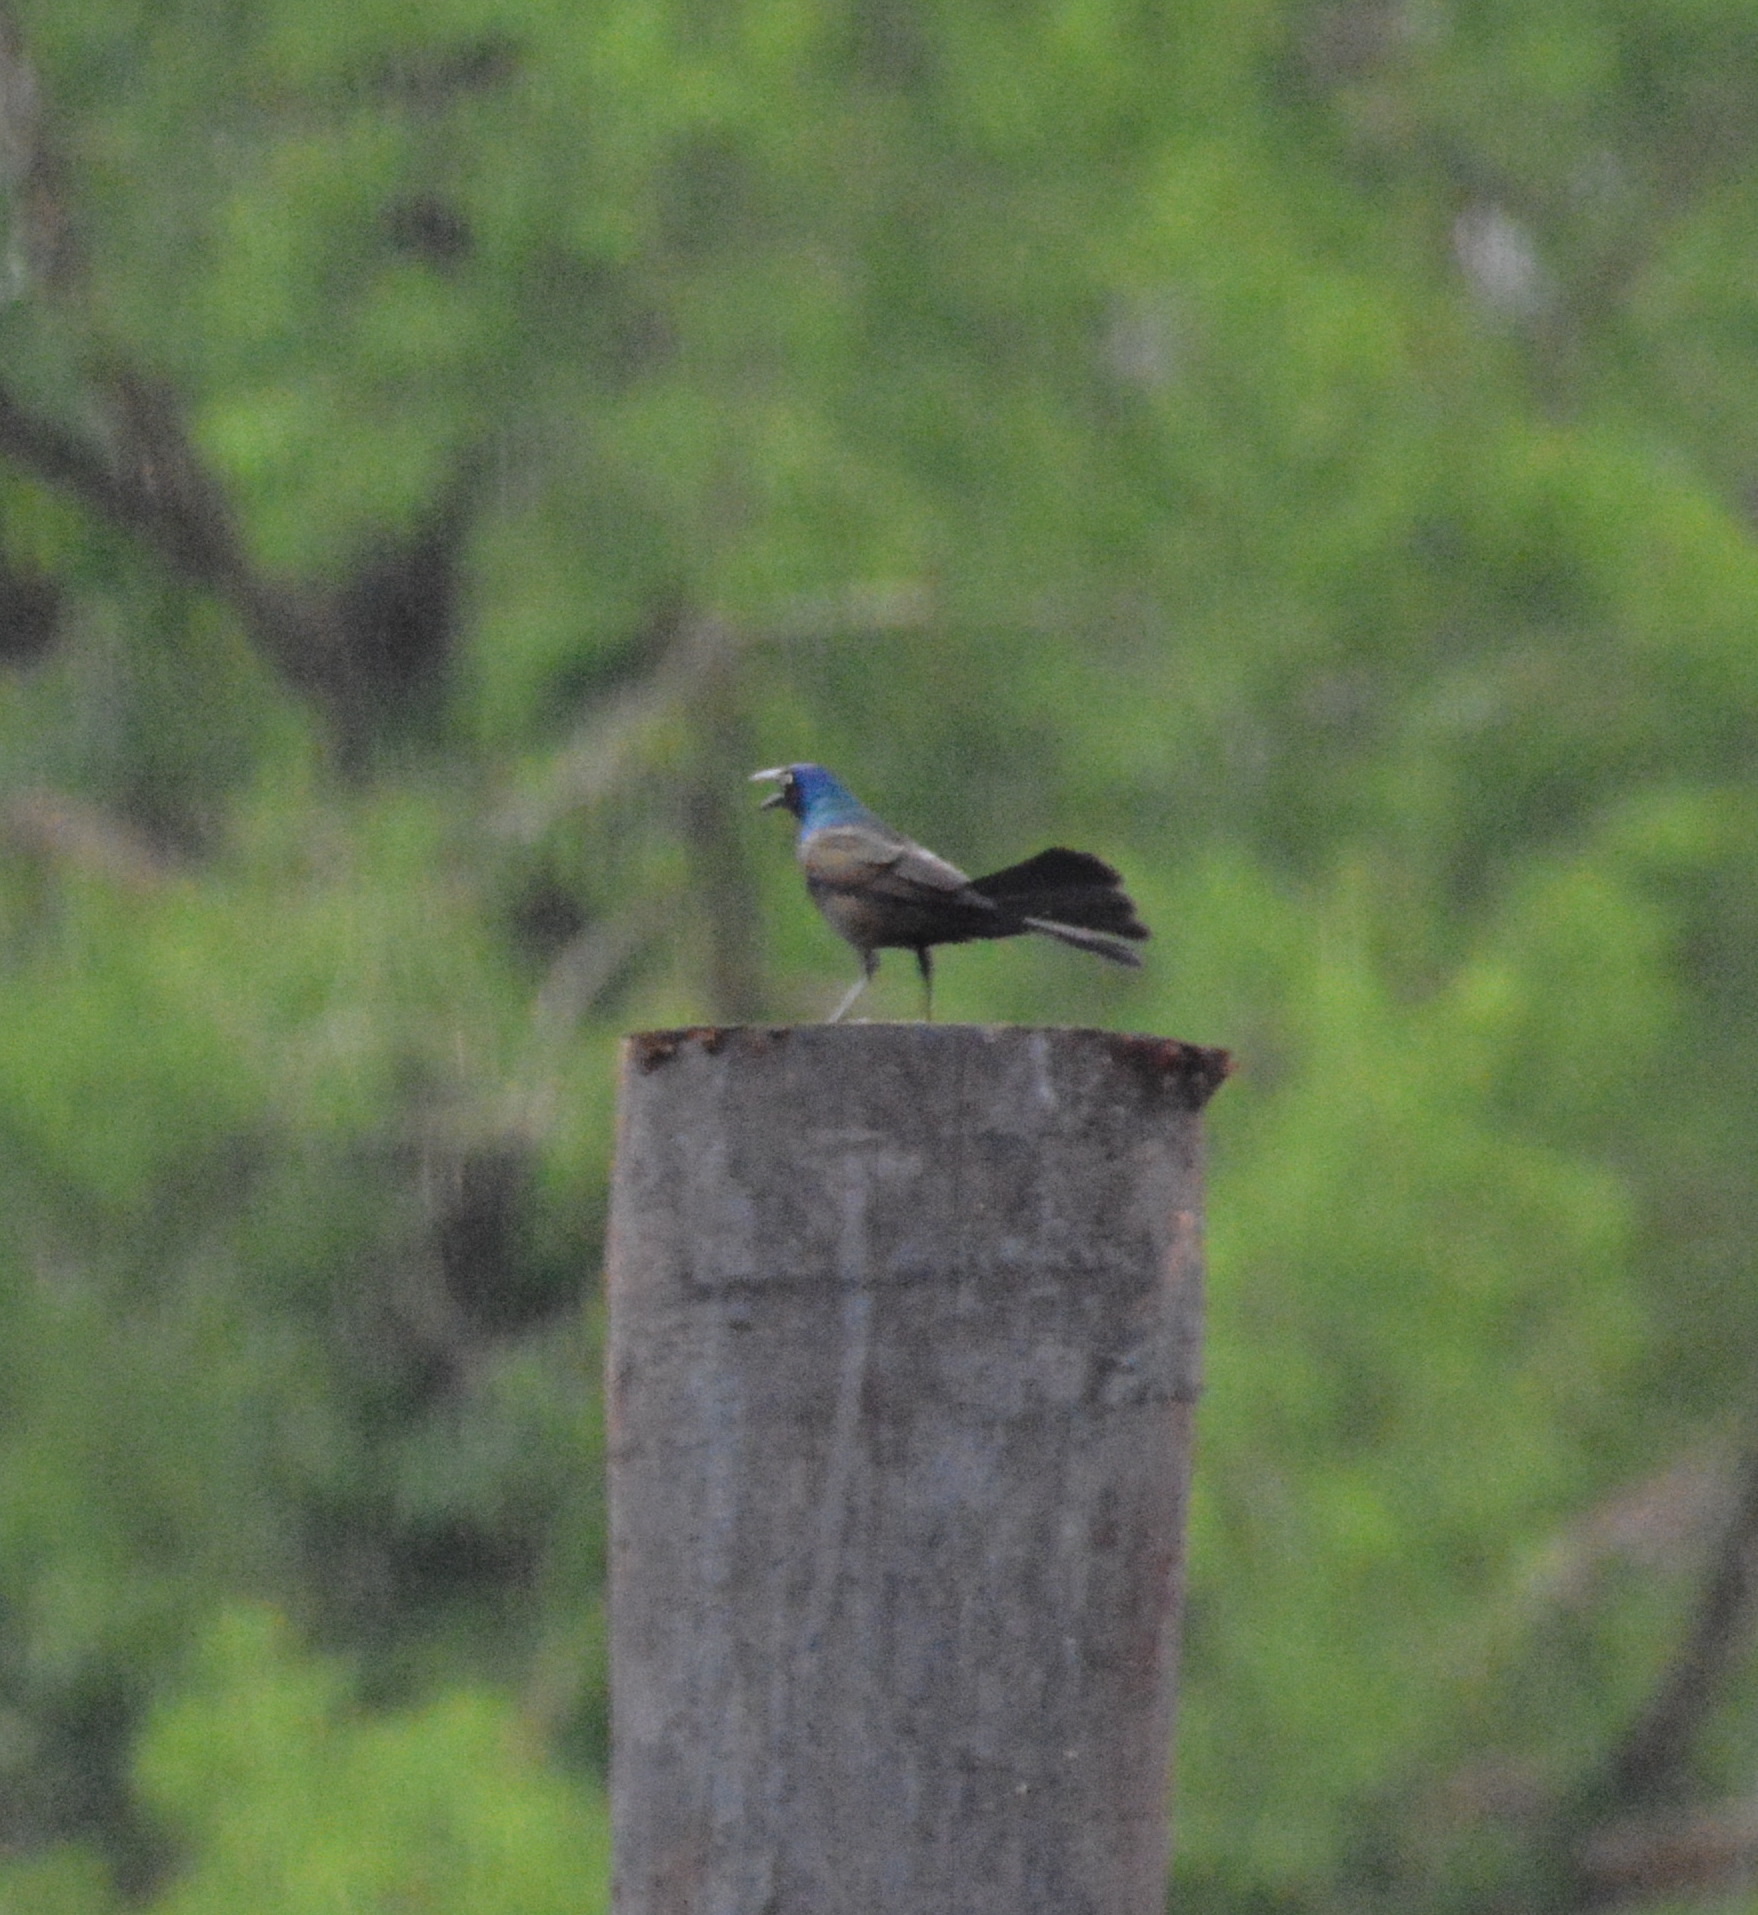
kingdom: Animalia
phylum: Chordata
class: Aves
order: Passeriformes
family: Icteridae
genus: Quiscalus
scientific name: Quiscalus quiscula
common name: Common grackle
